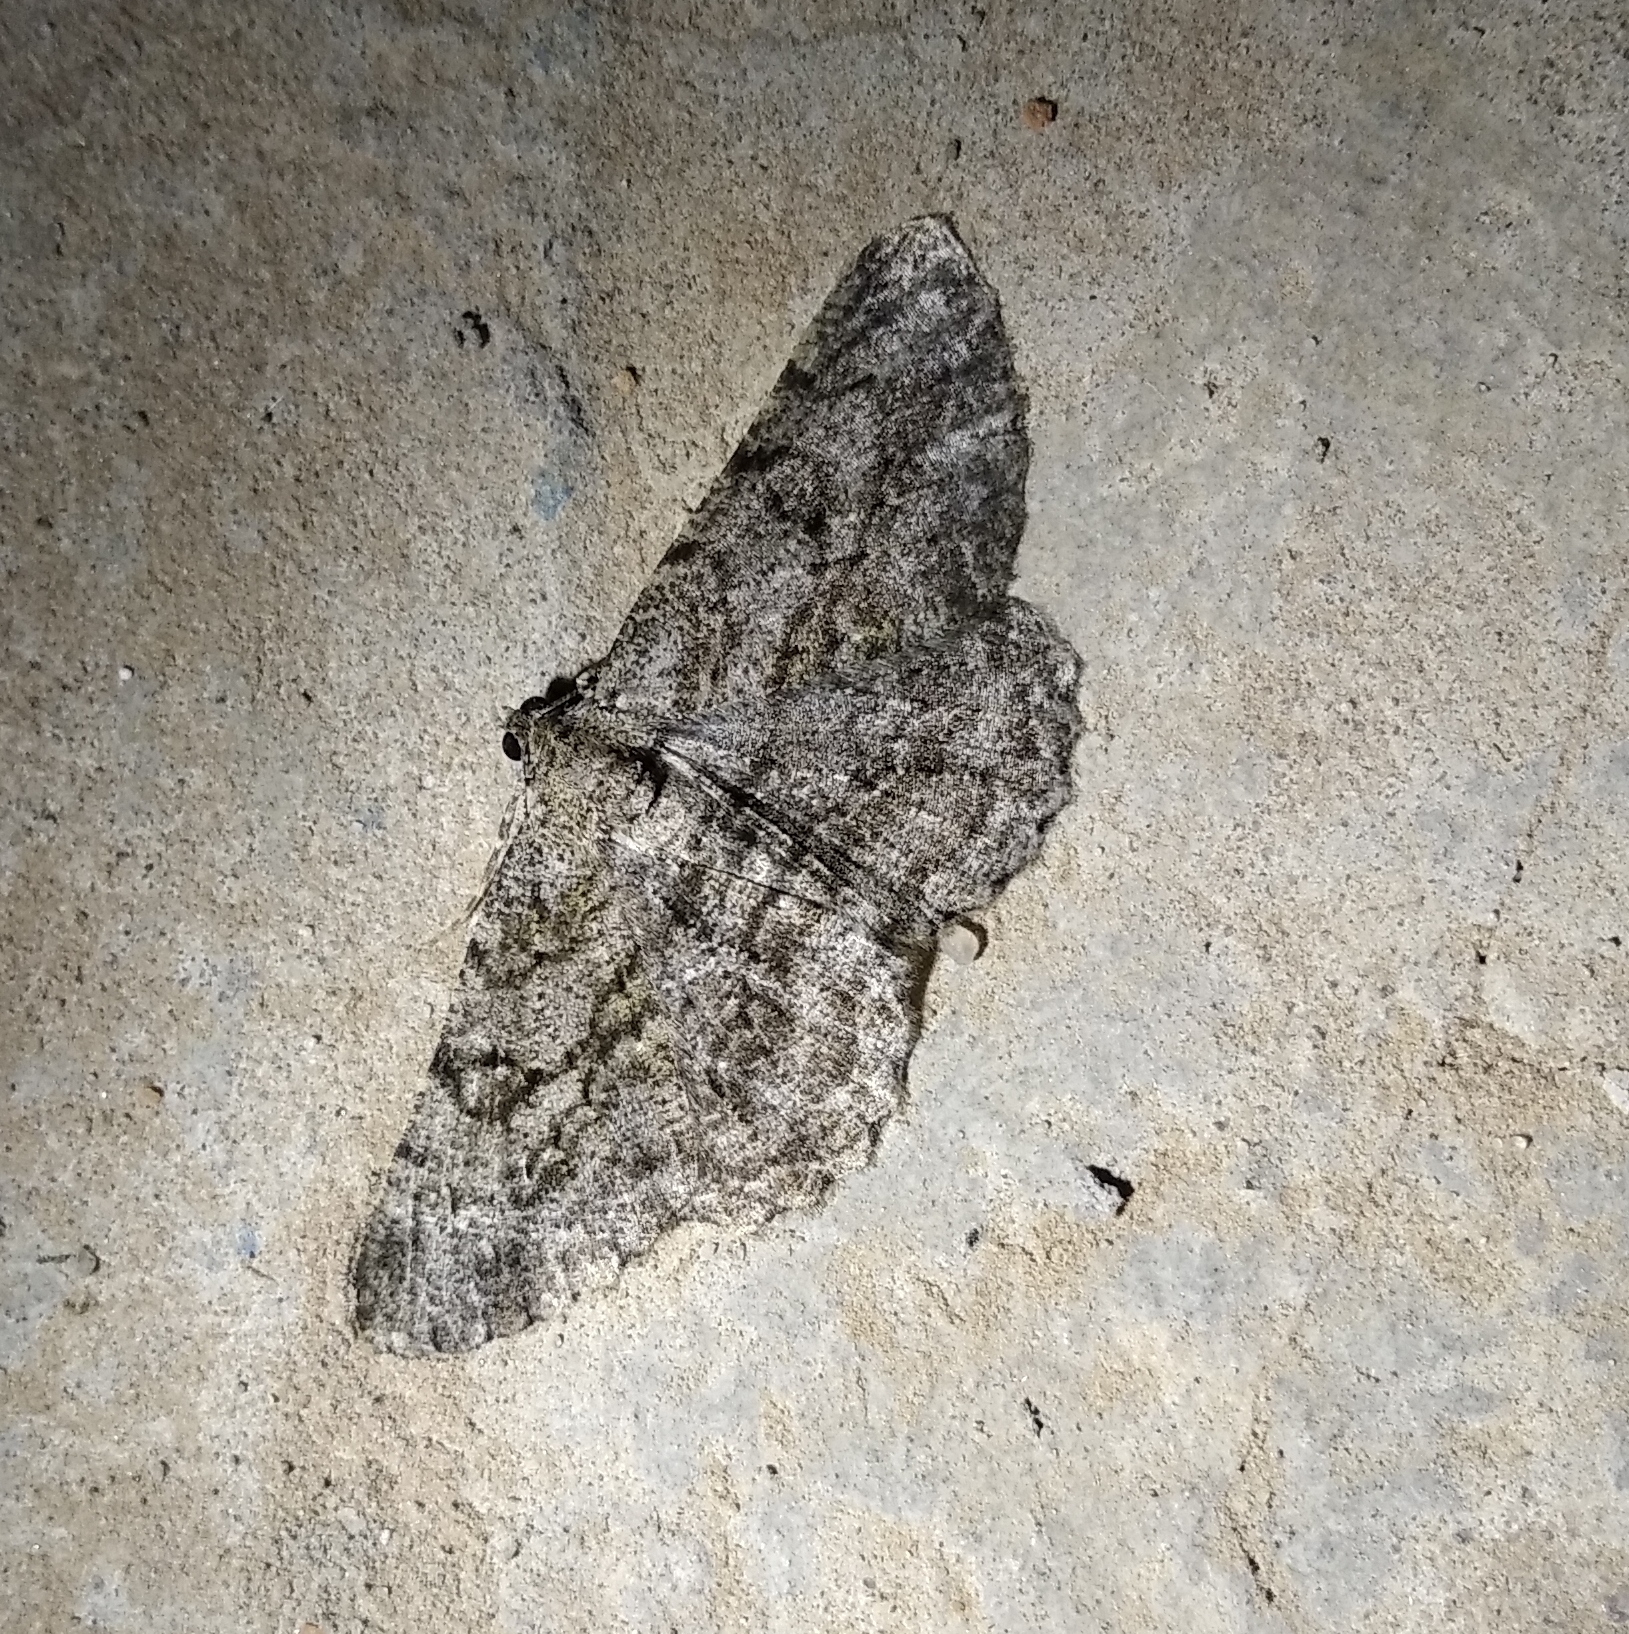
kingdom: Animalia
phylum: Arthropoda
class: Insecta
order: Lepidoptera
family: Geometridae
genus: Peribatodes
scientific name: Peribatodes rhomboidaria
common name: Willow beauty
